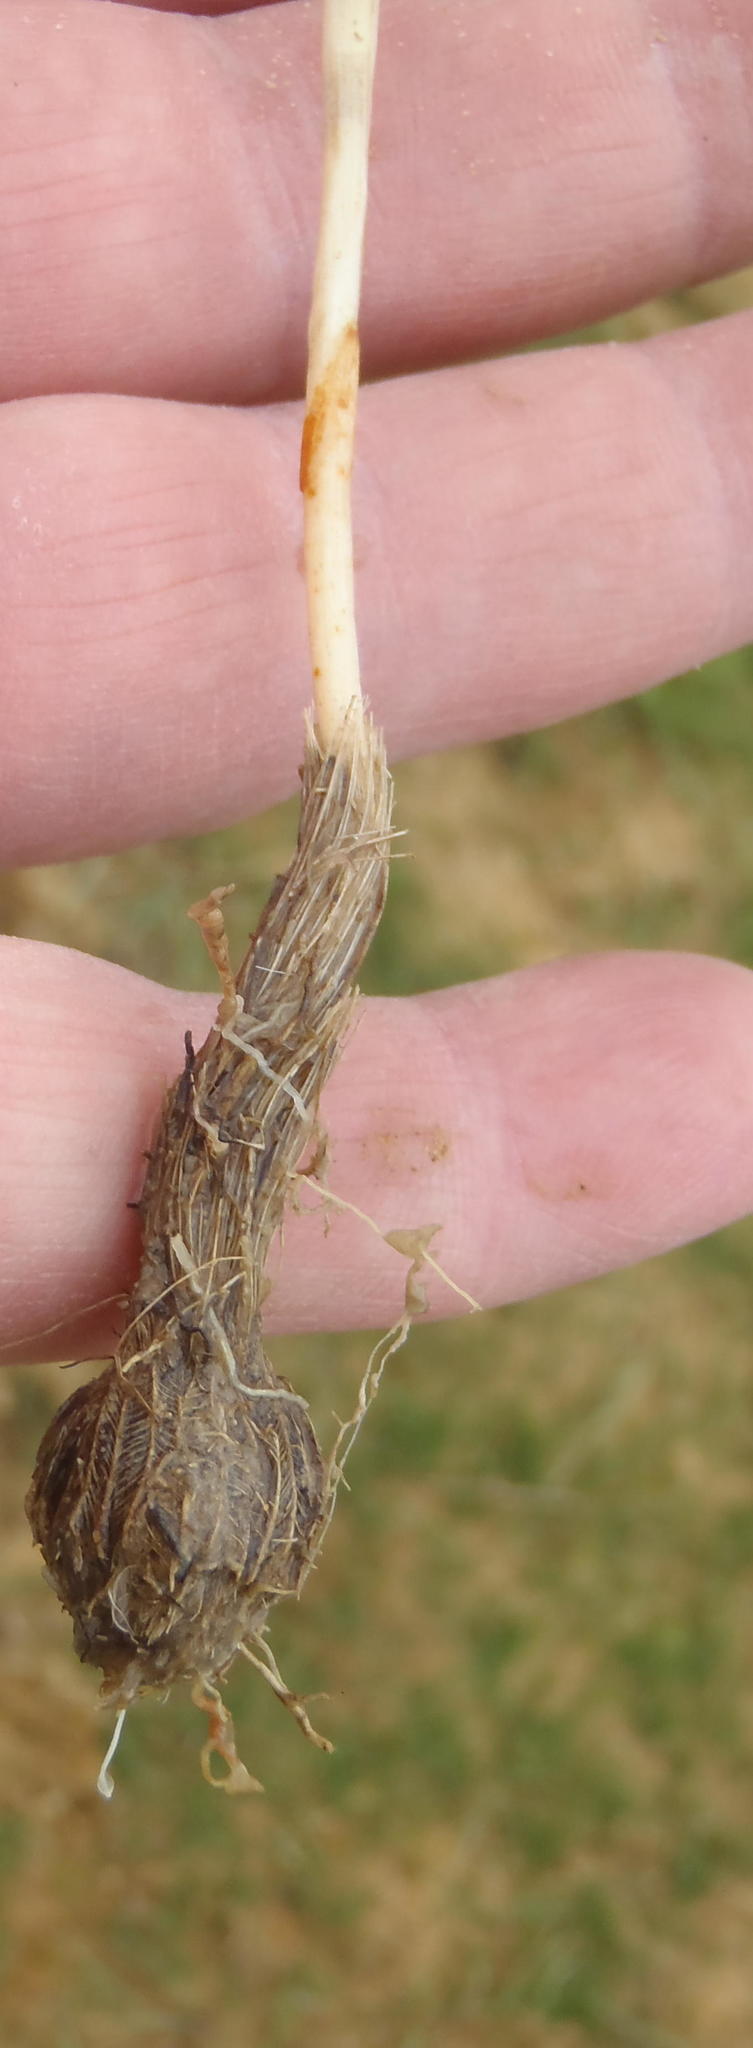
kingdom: Plantae
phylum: Tracheophyta
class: Liliopsida
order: Asparagales
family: Iridaceae
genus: Moraea
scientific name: Moraea fugacissima
